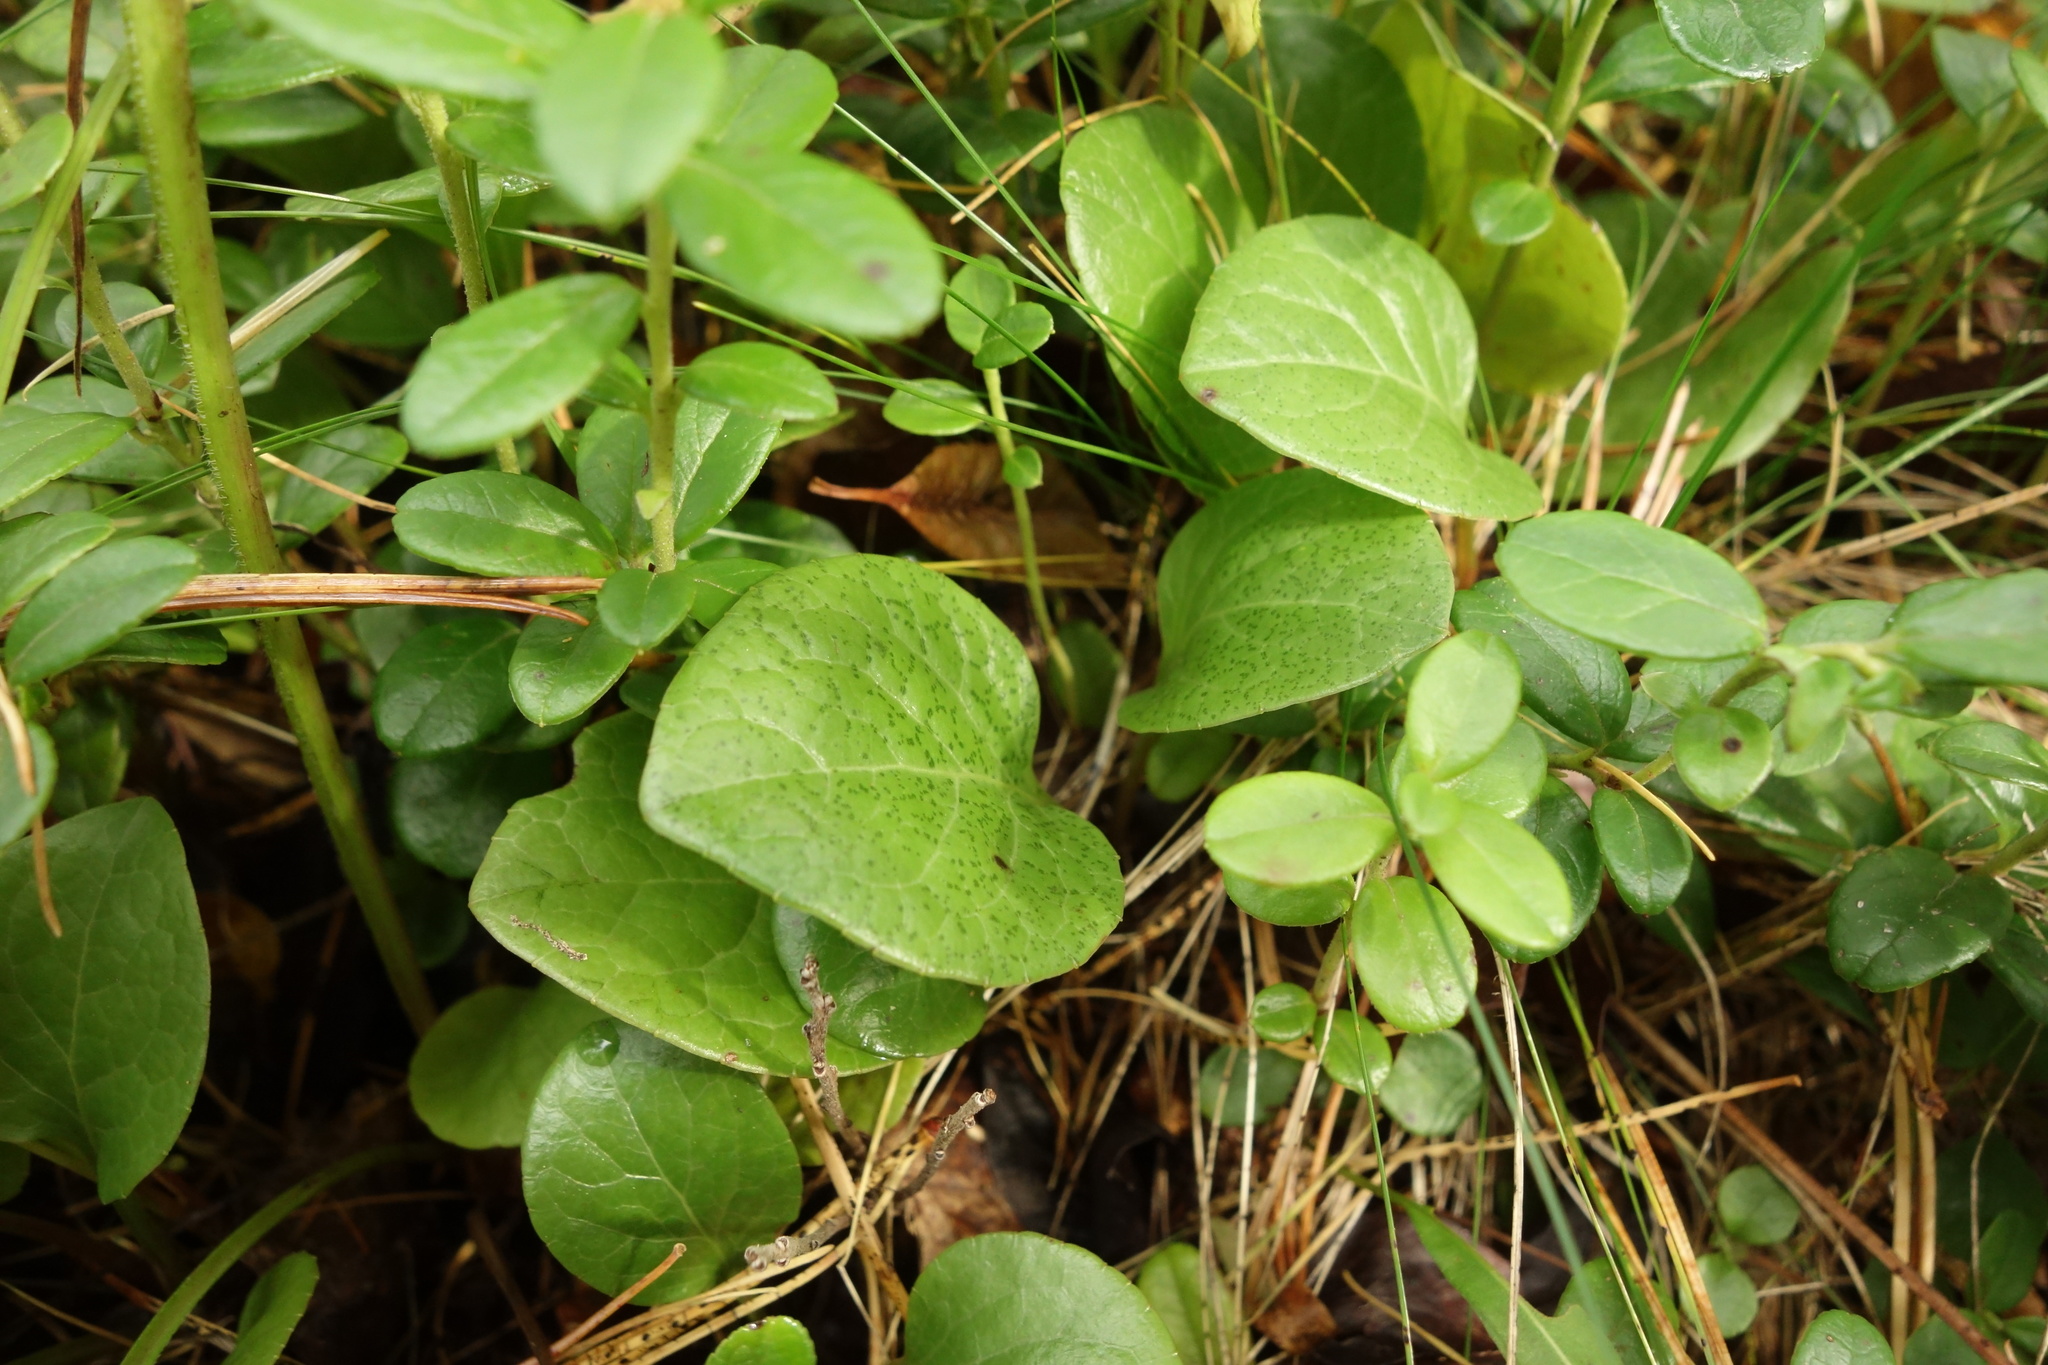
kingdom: Plantae
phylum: Tracheophyta
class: Magnoliopsida
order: Ericales
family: Ericaceae
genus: Pyrola
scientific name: Pyrola asarifolia
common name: Bog wintergreen
